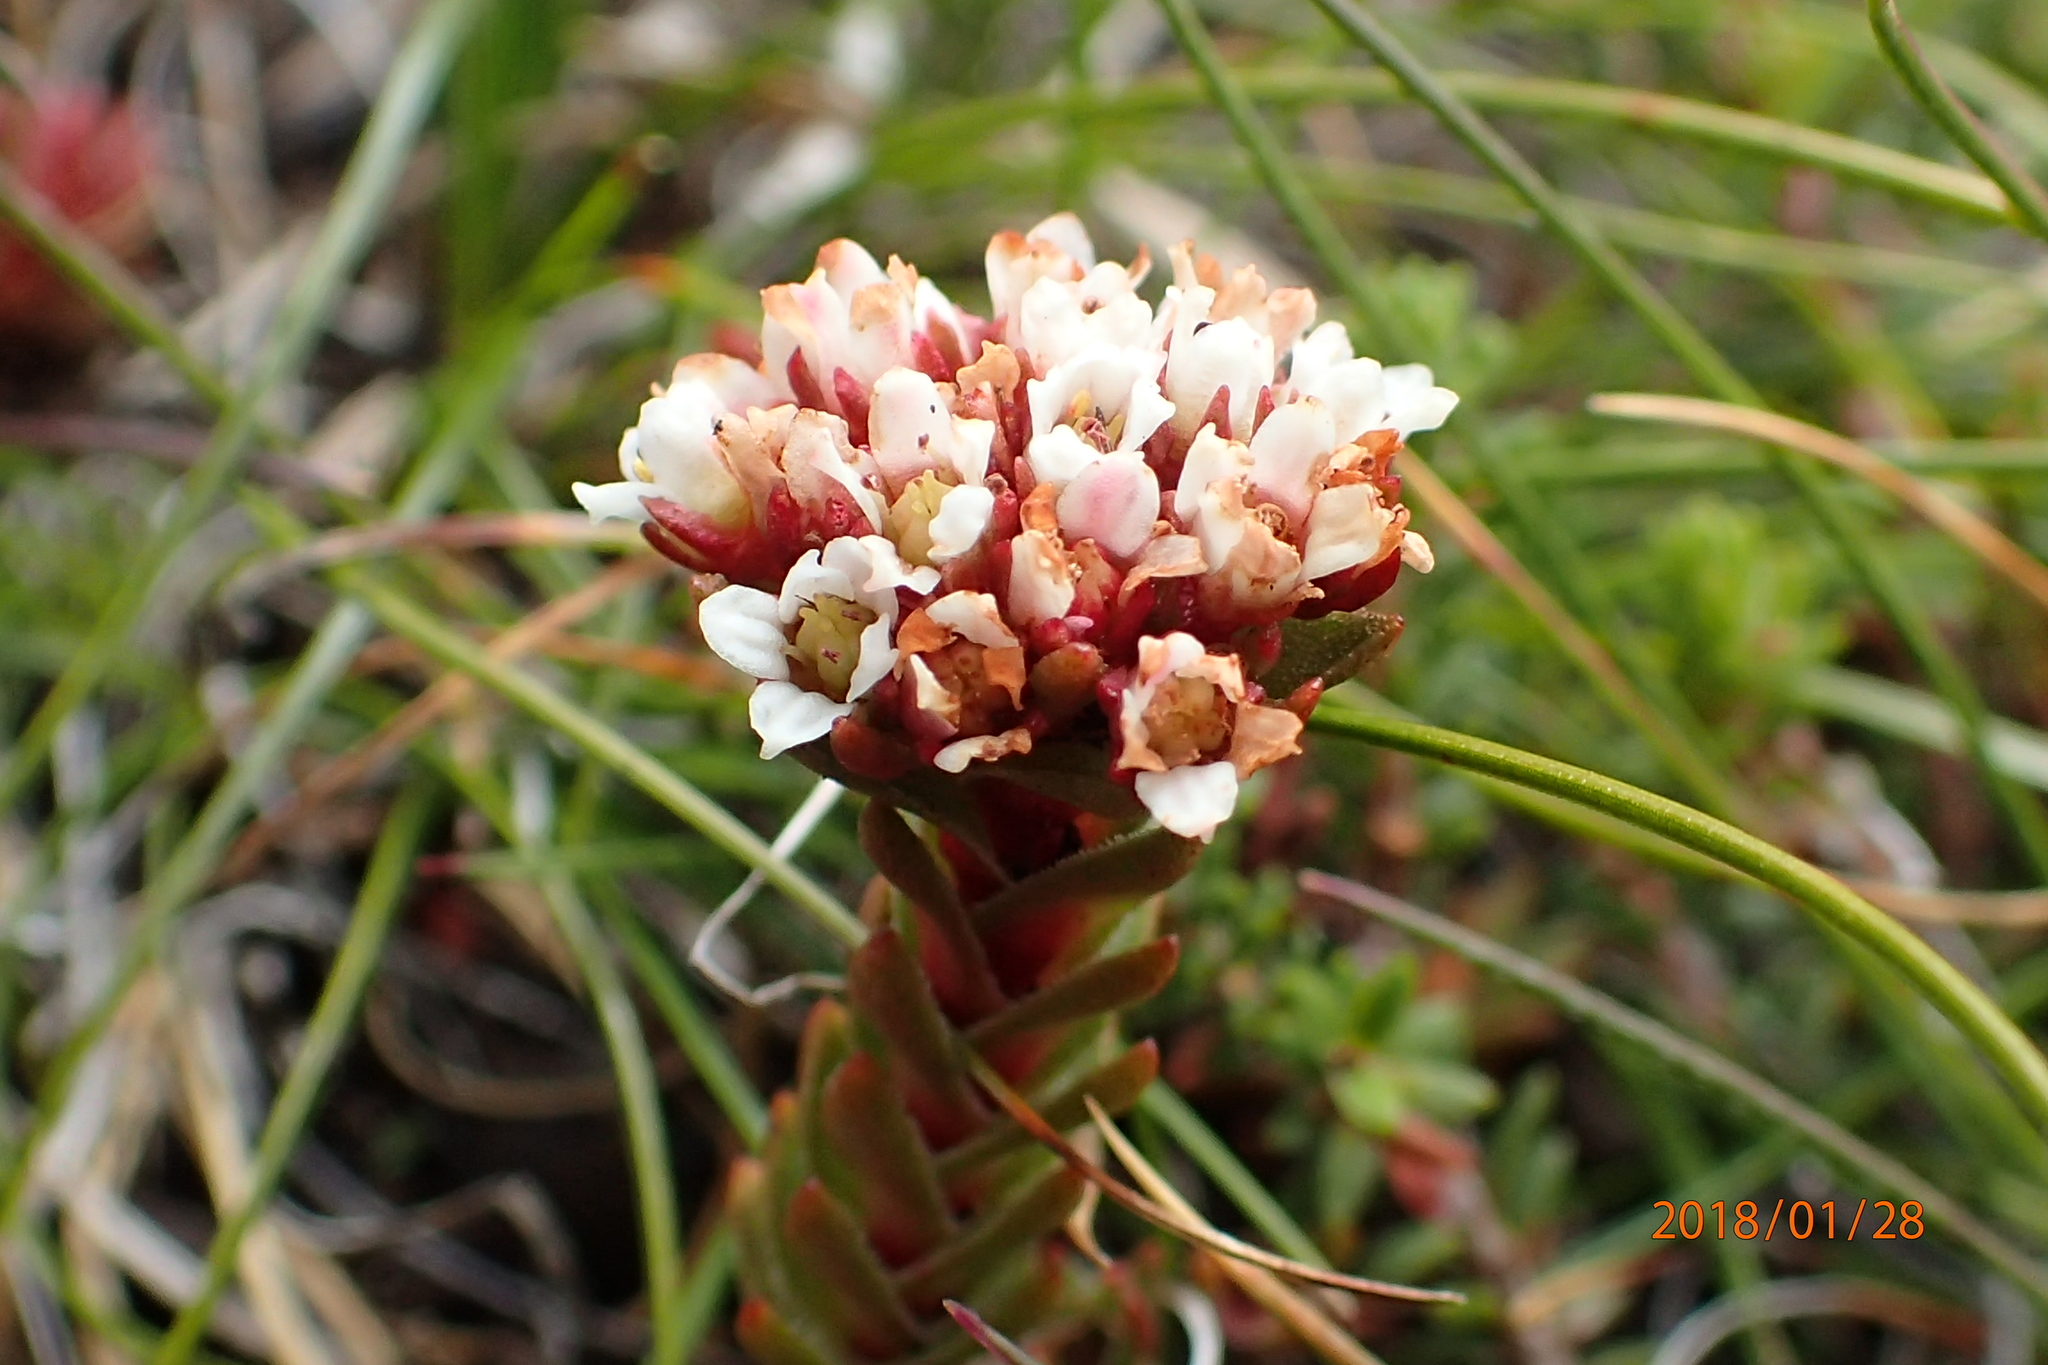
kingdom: Plantae
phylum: Tracheophyta
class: Magnoliopsida
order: Saxifragales
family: Crassulaceae
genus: Crassula
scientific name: Crassula natalensis
